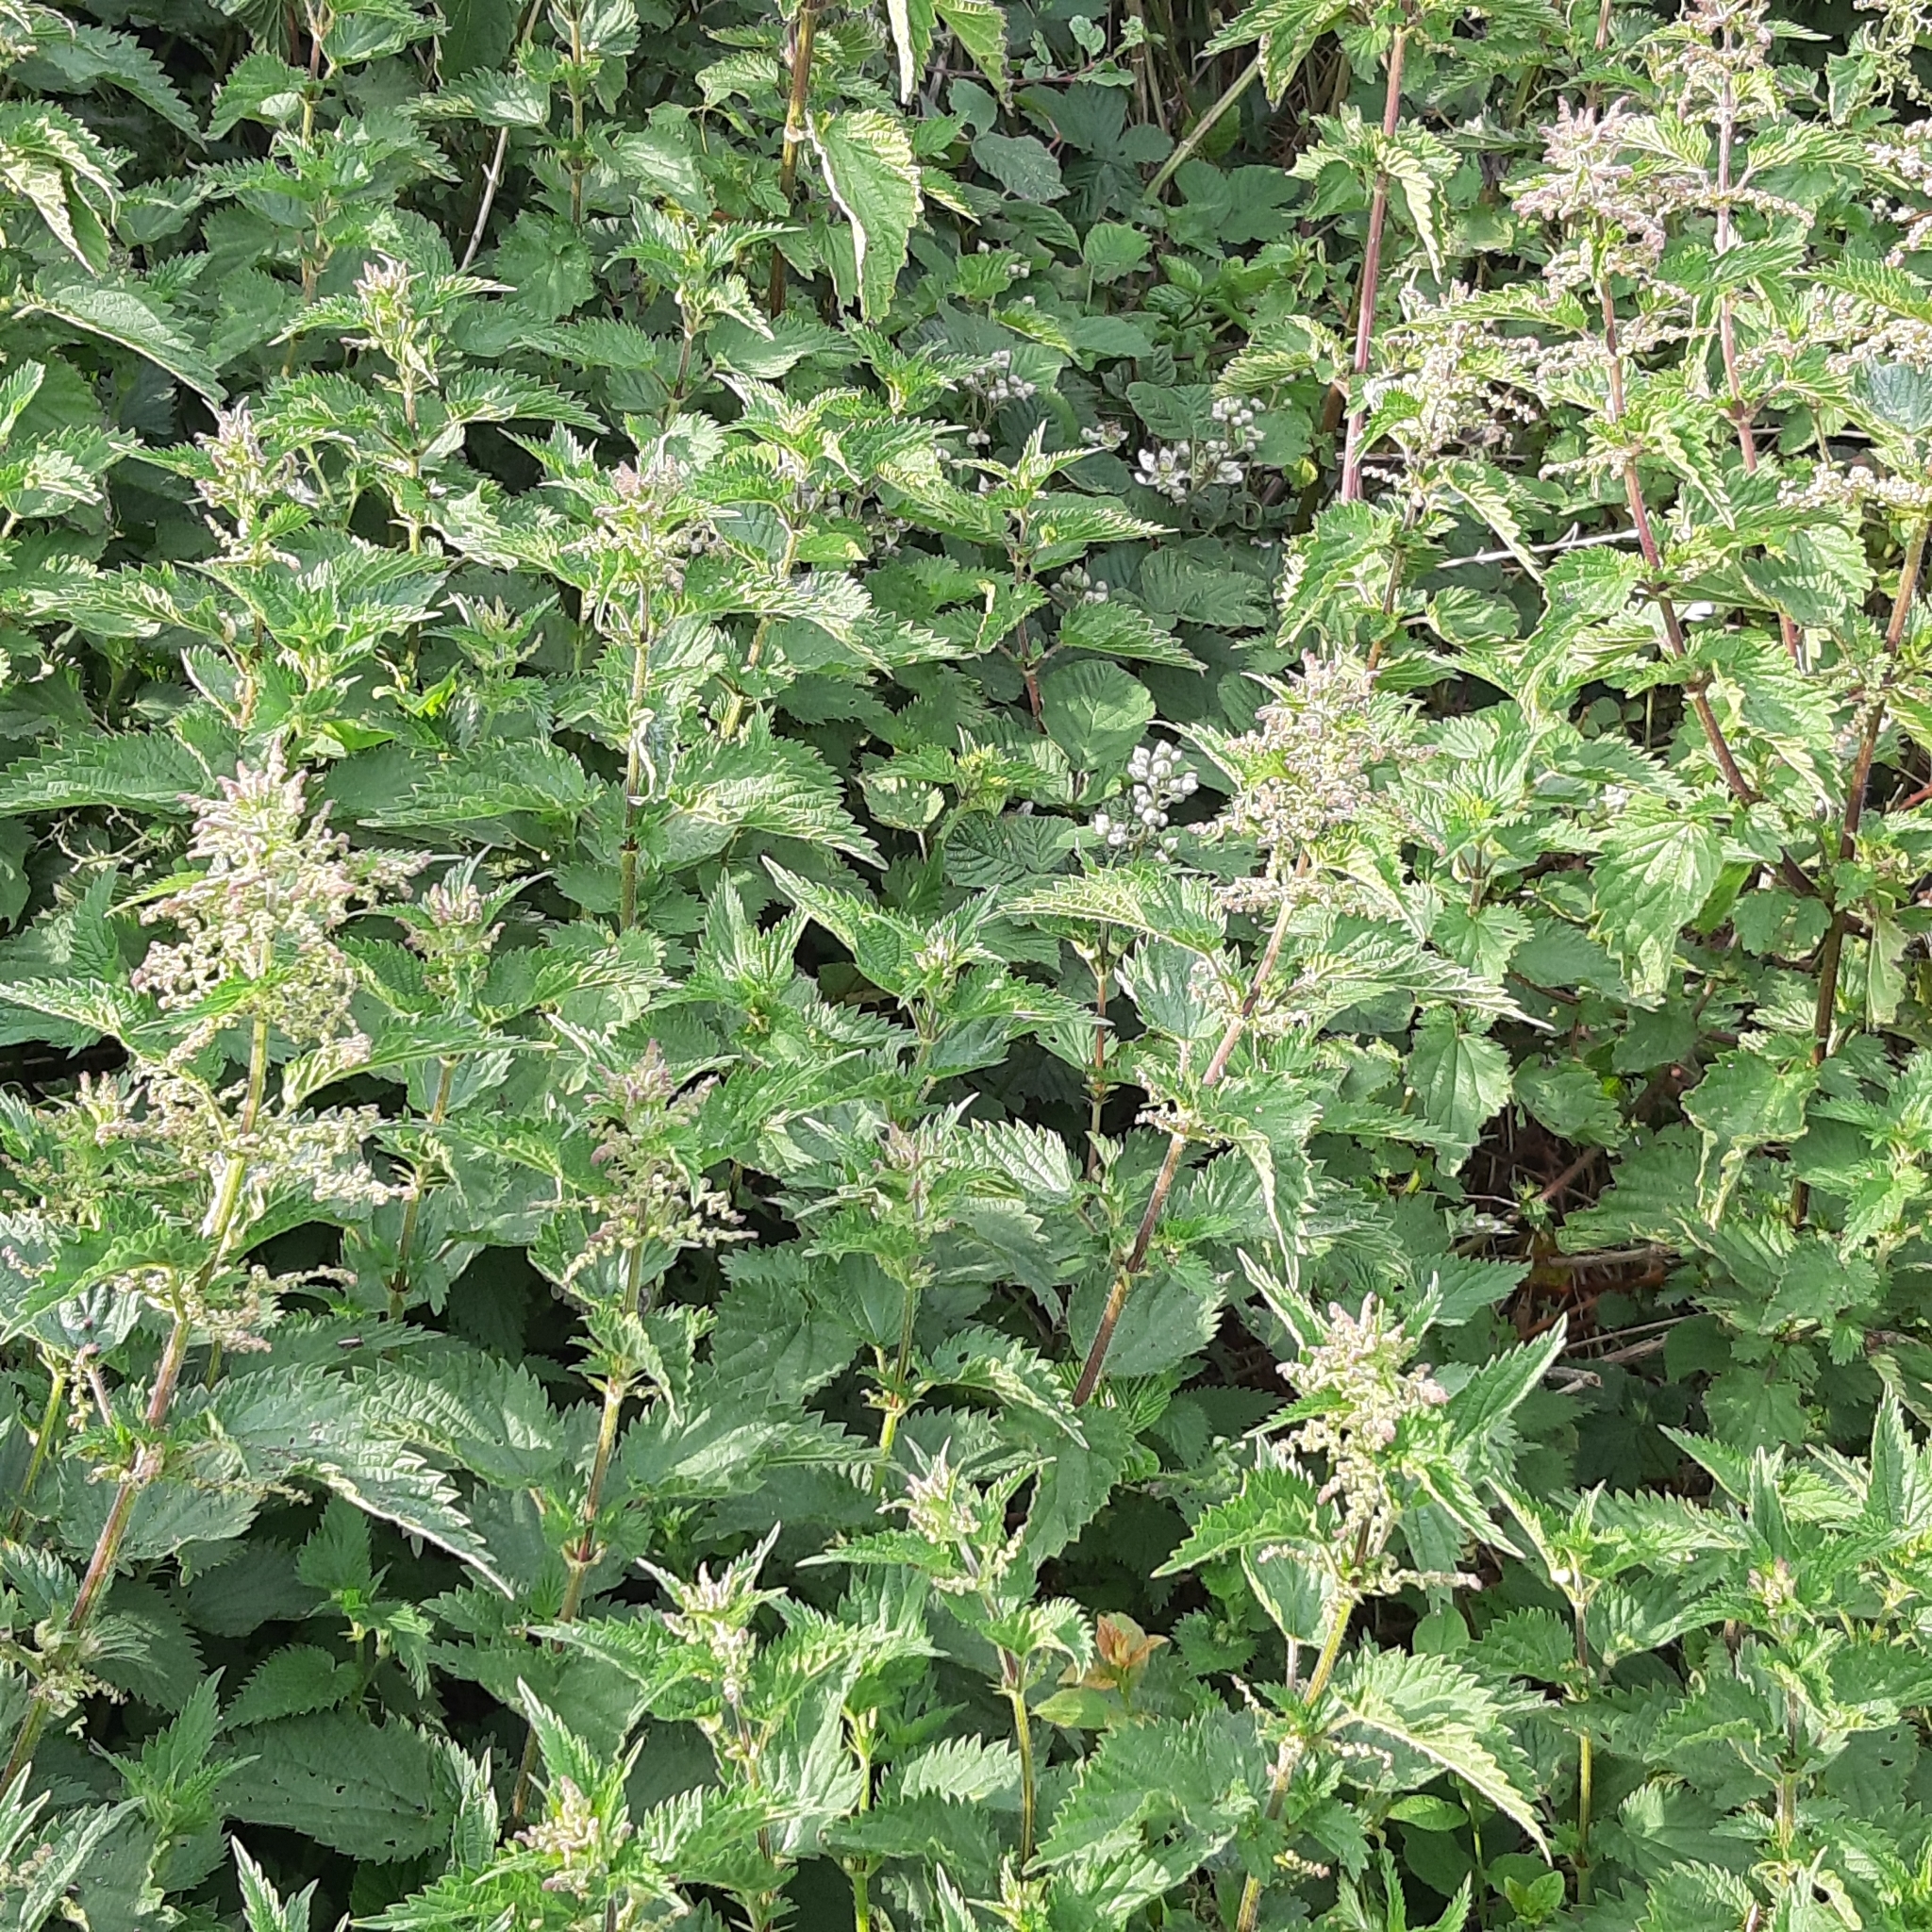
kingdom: Plantae
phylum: Tracheophyta
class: Magnoliopsida
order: Rosales
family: Urticaceae
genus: Urtica
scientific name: Urtica dioica
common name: Common nettle
